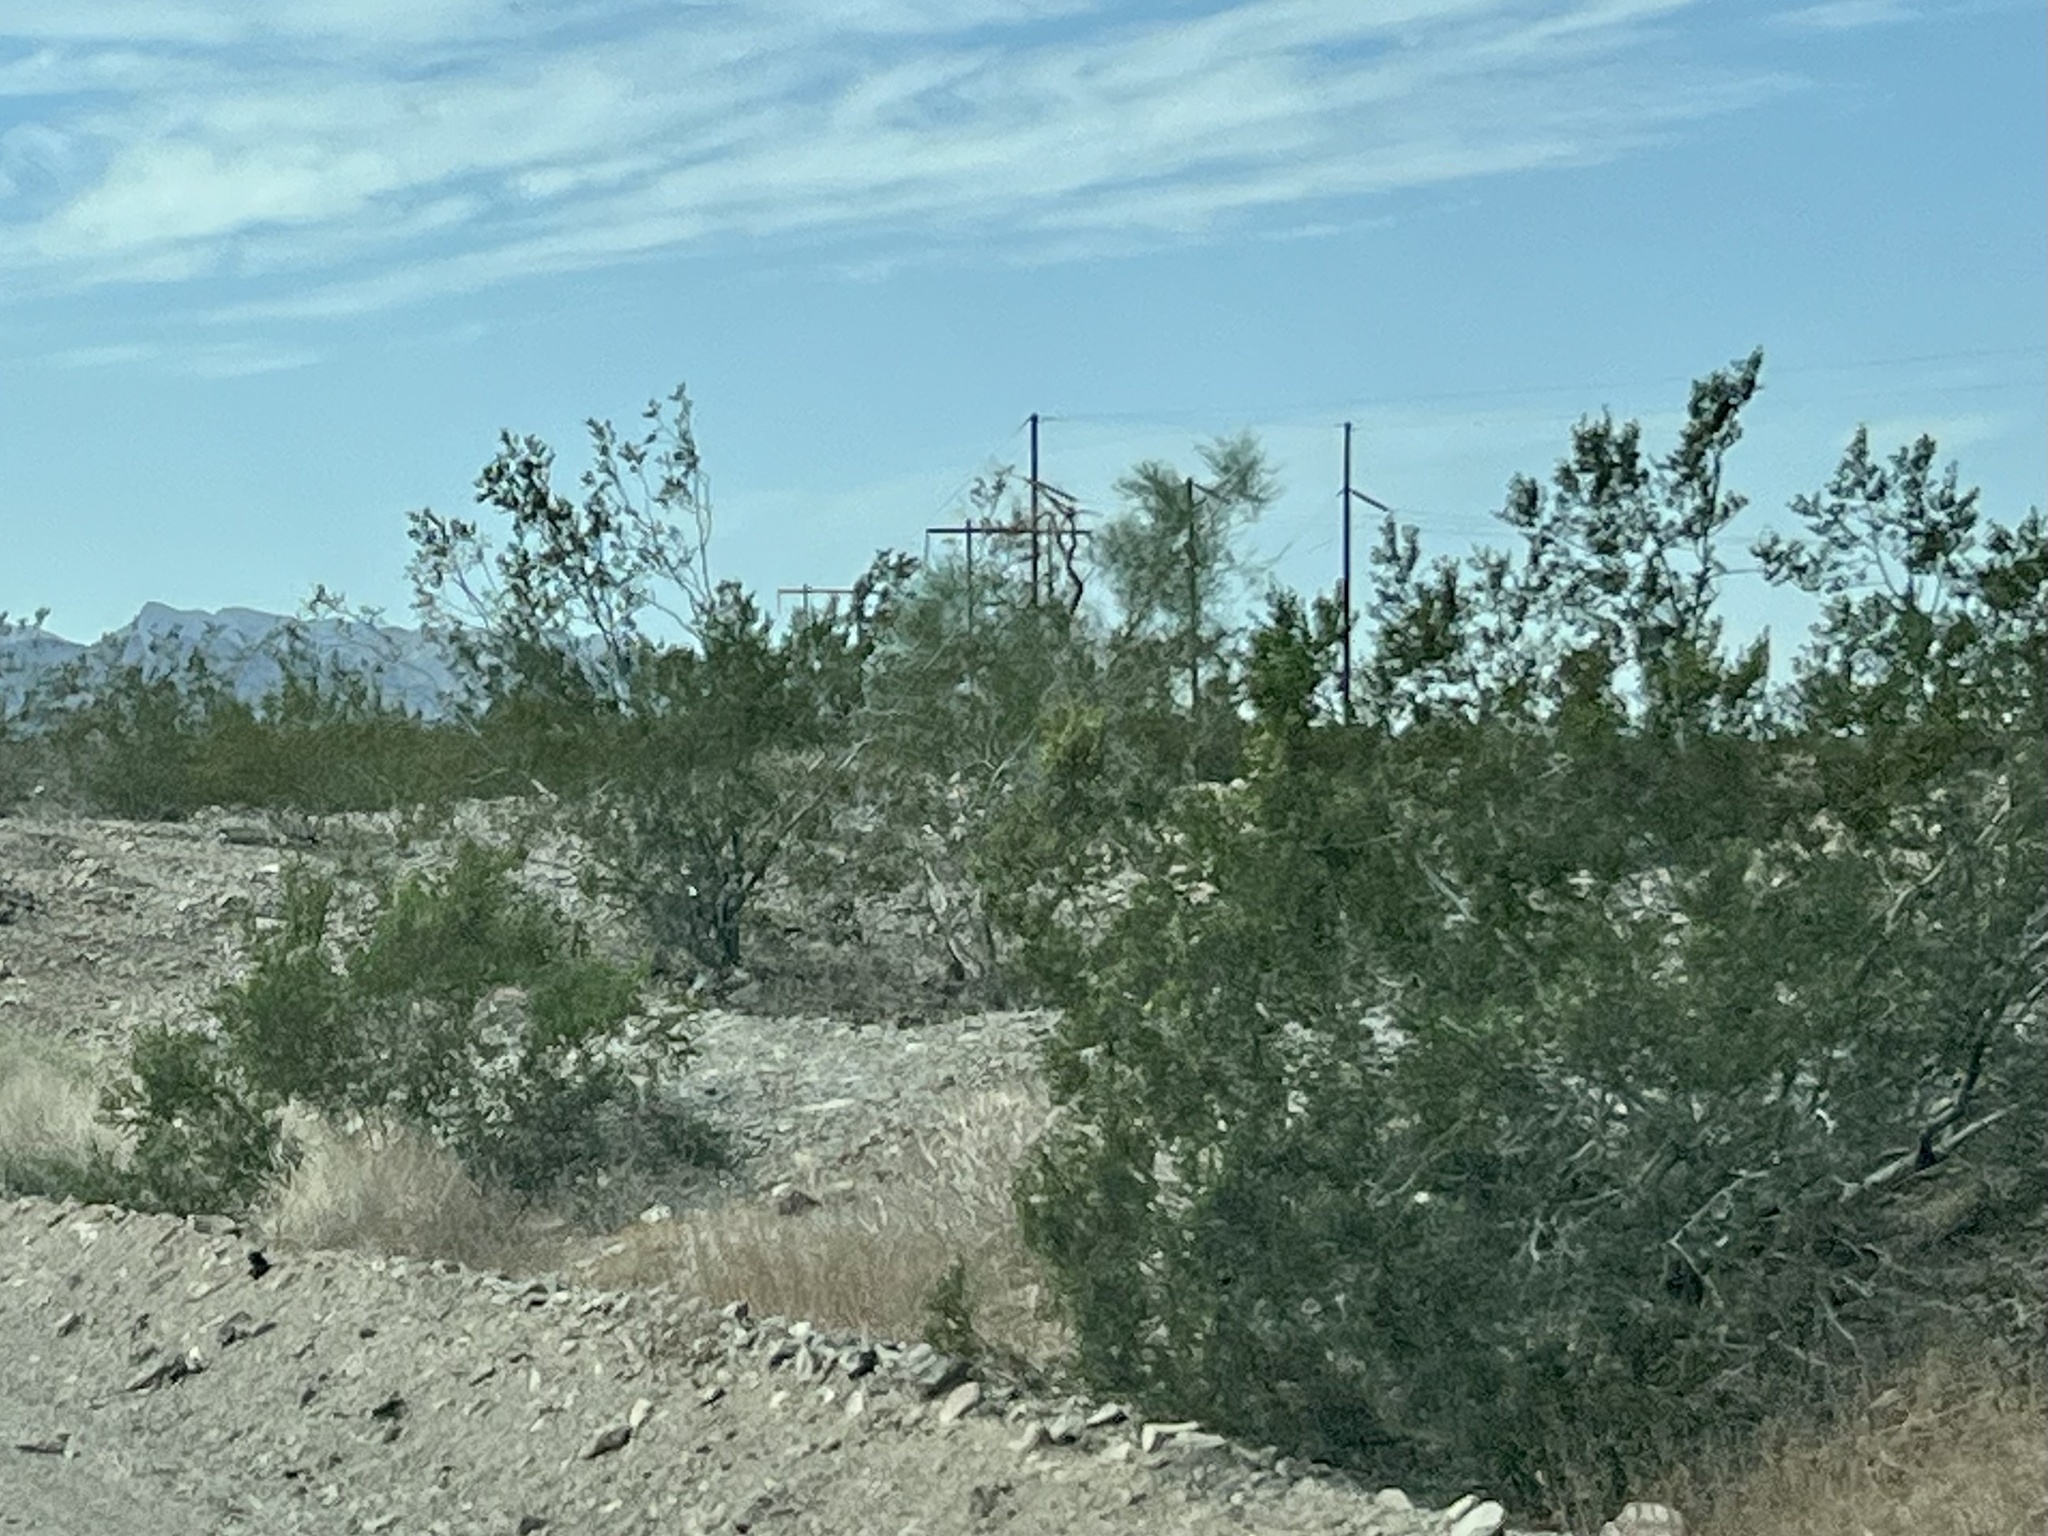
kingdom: Plantae
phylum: Tracheophyta
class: Magnoliopsida
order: Zygophyllales
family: Zygophyllaceae
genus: Larrea
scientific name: Larrea tridentata
